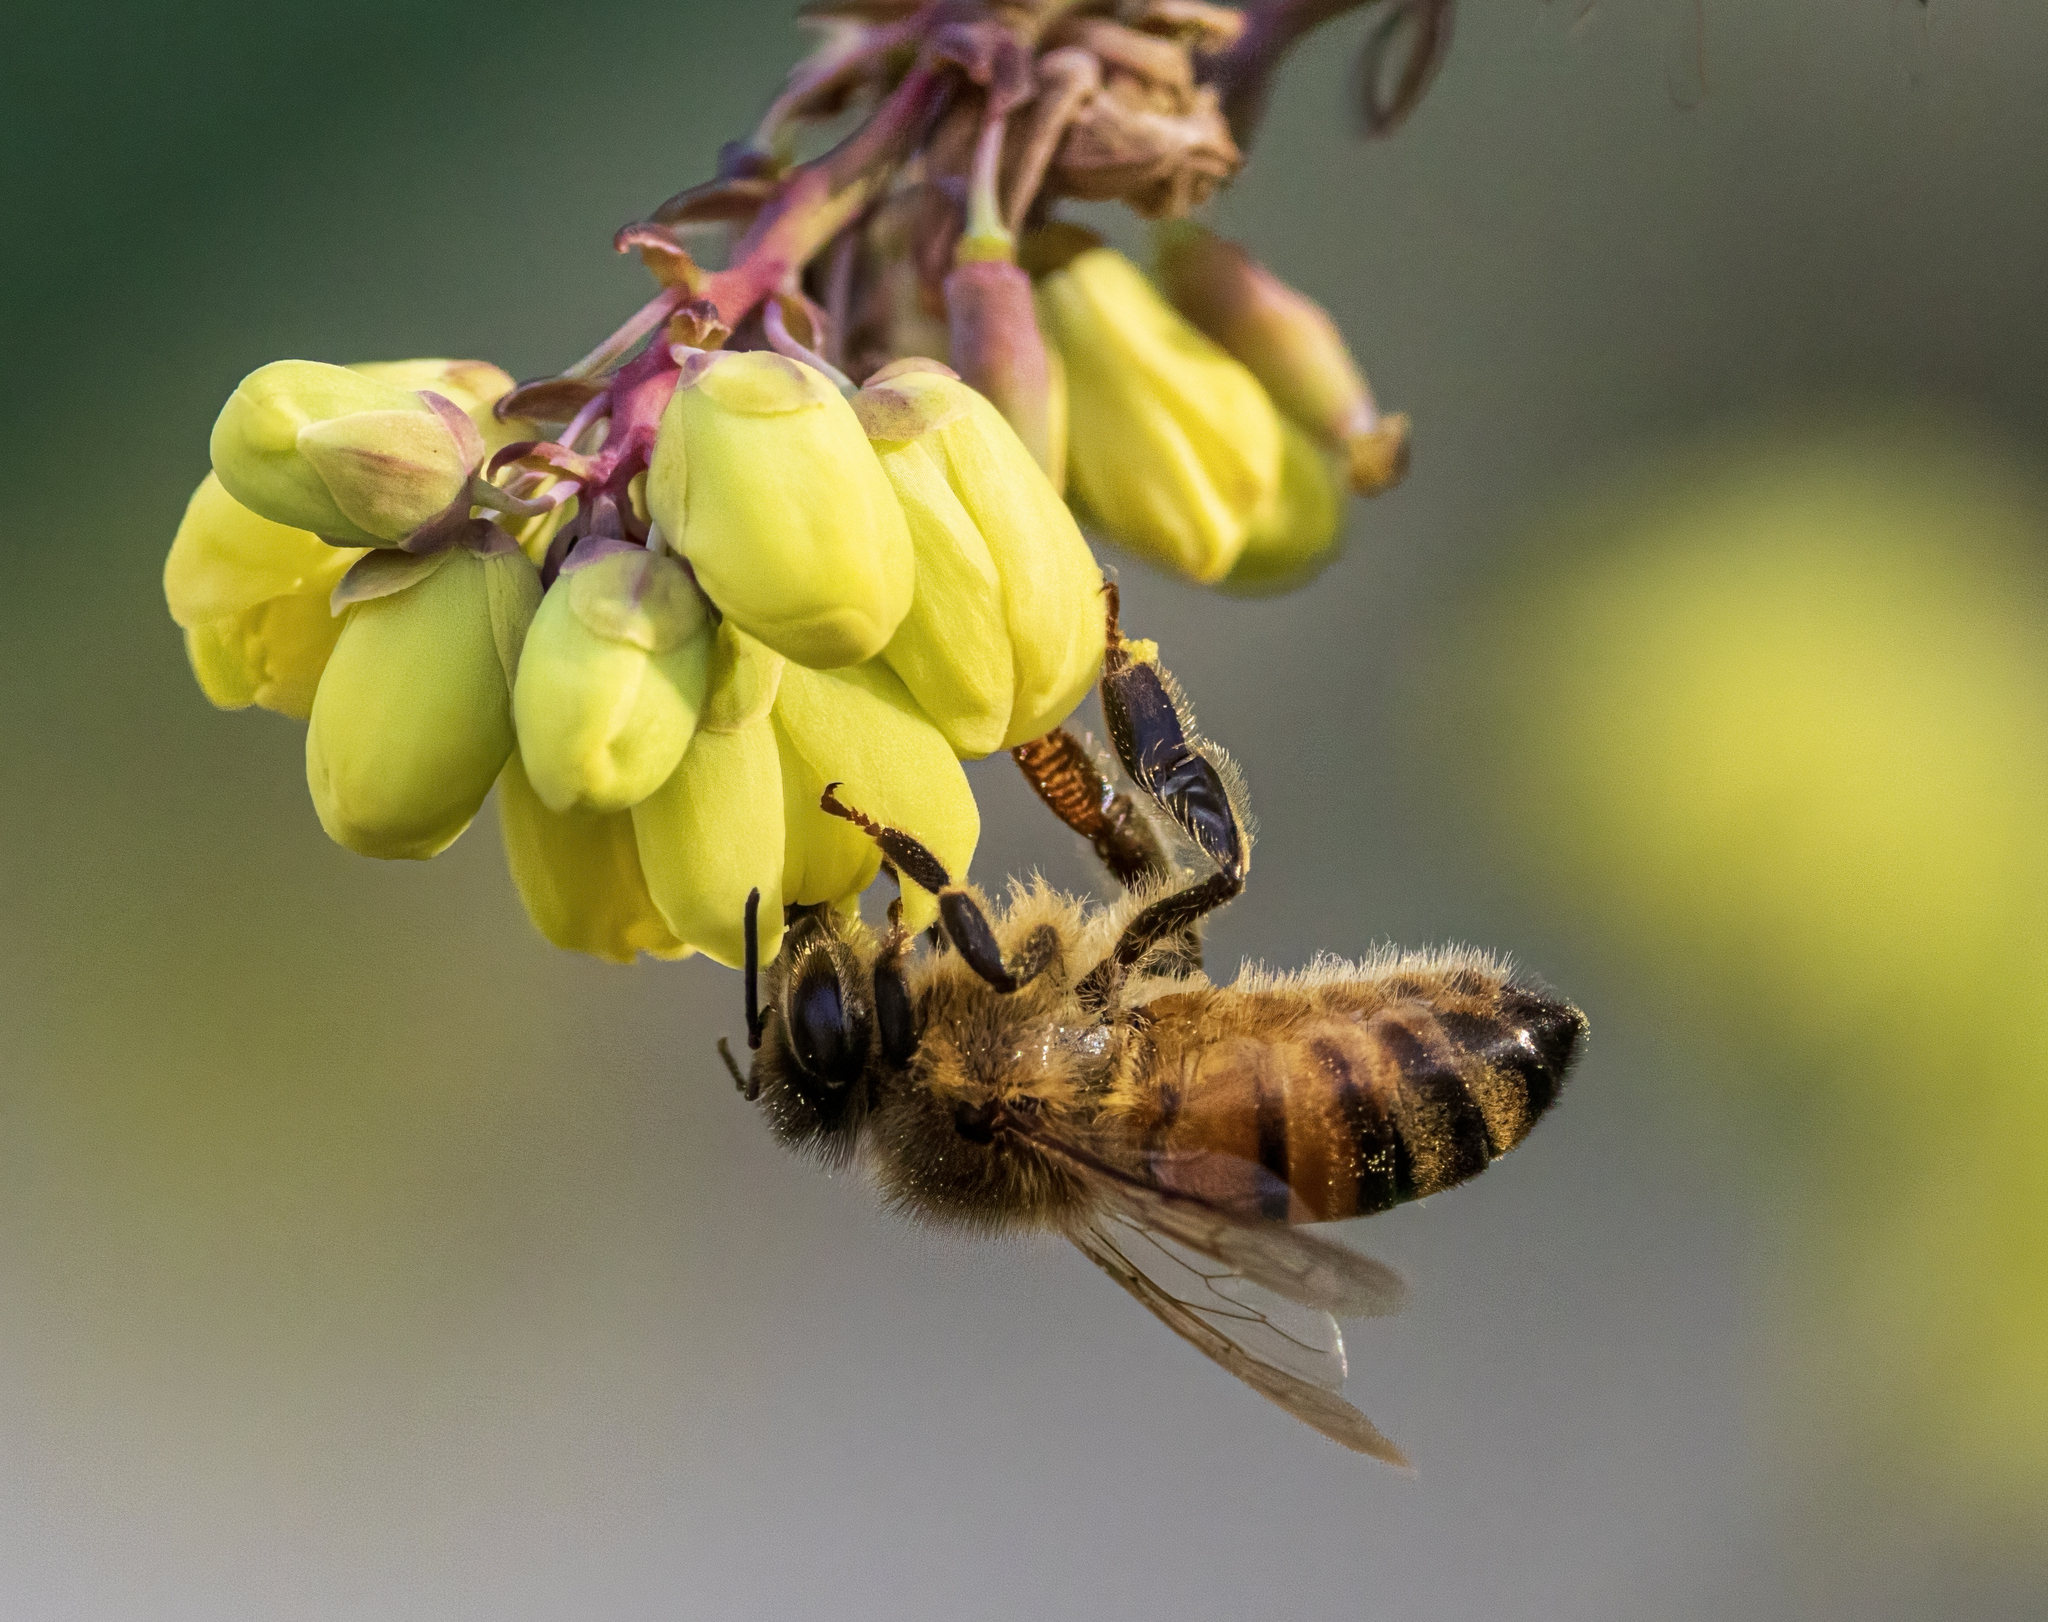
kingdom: Animalia
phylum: Arthropoda
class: Insecta
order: Hymenoptera
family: Apidae
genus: Apis
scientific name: Apis mellifera
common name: Honey bee
